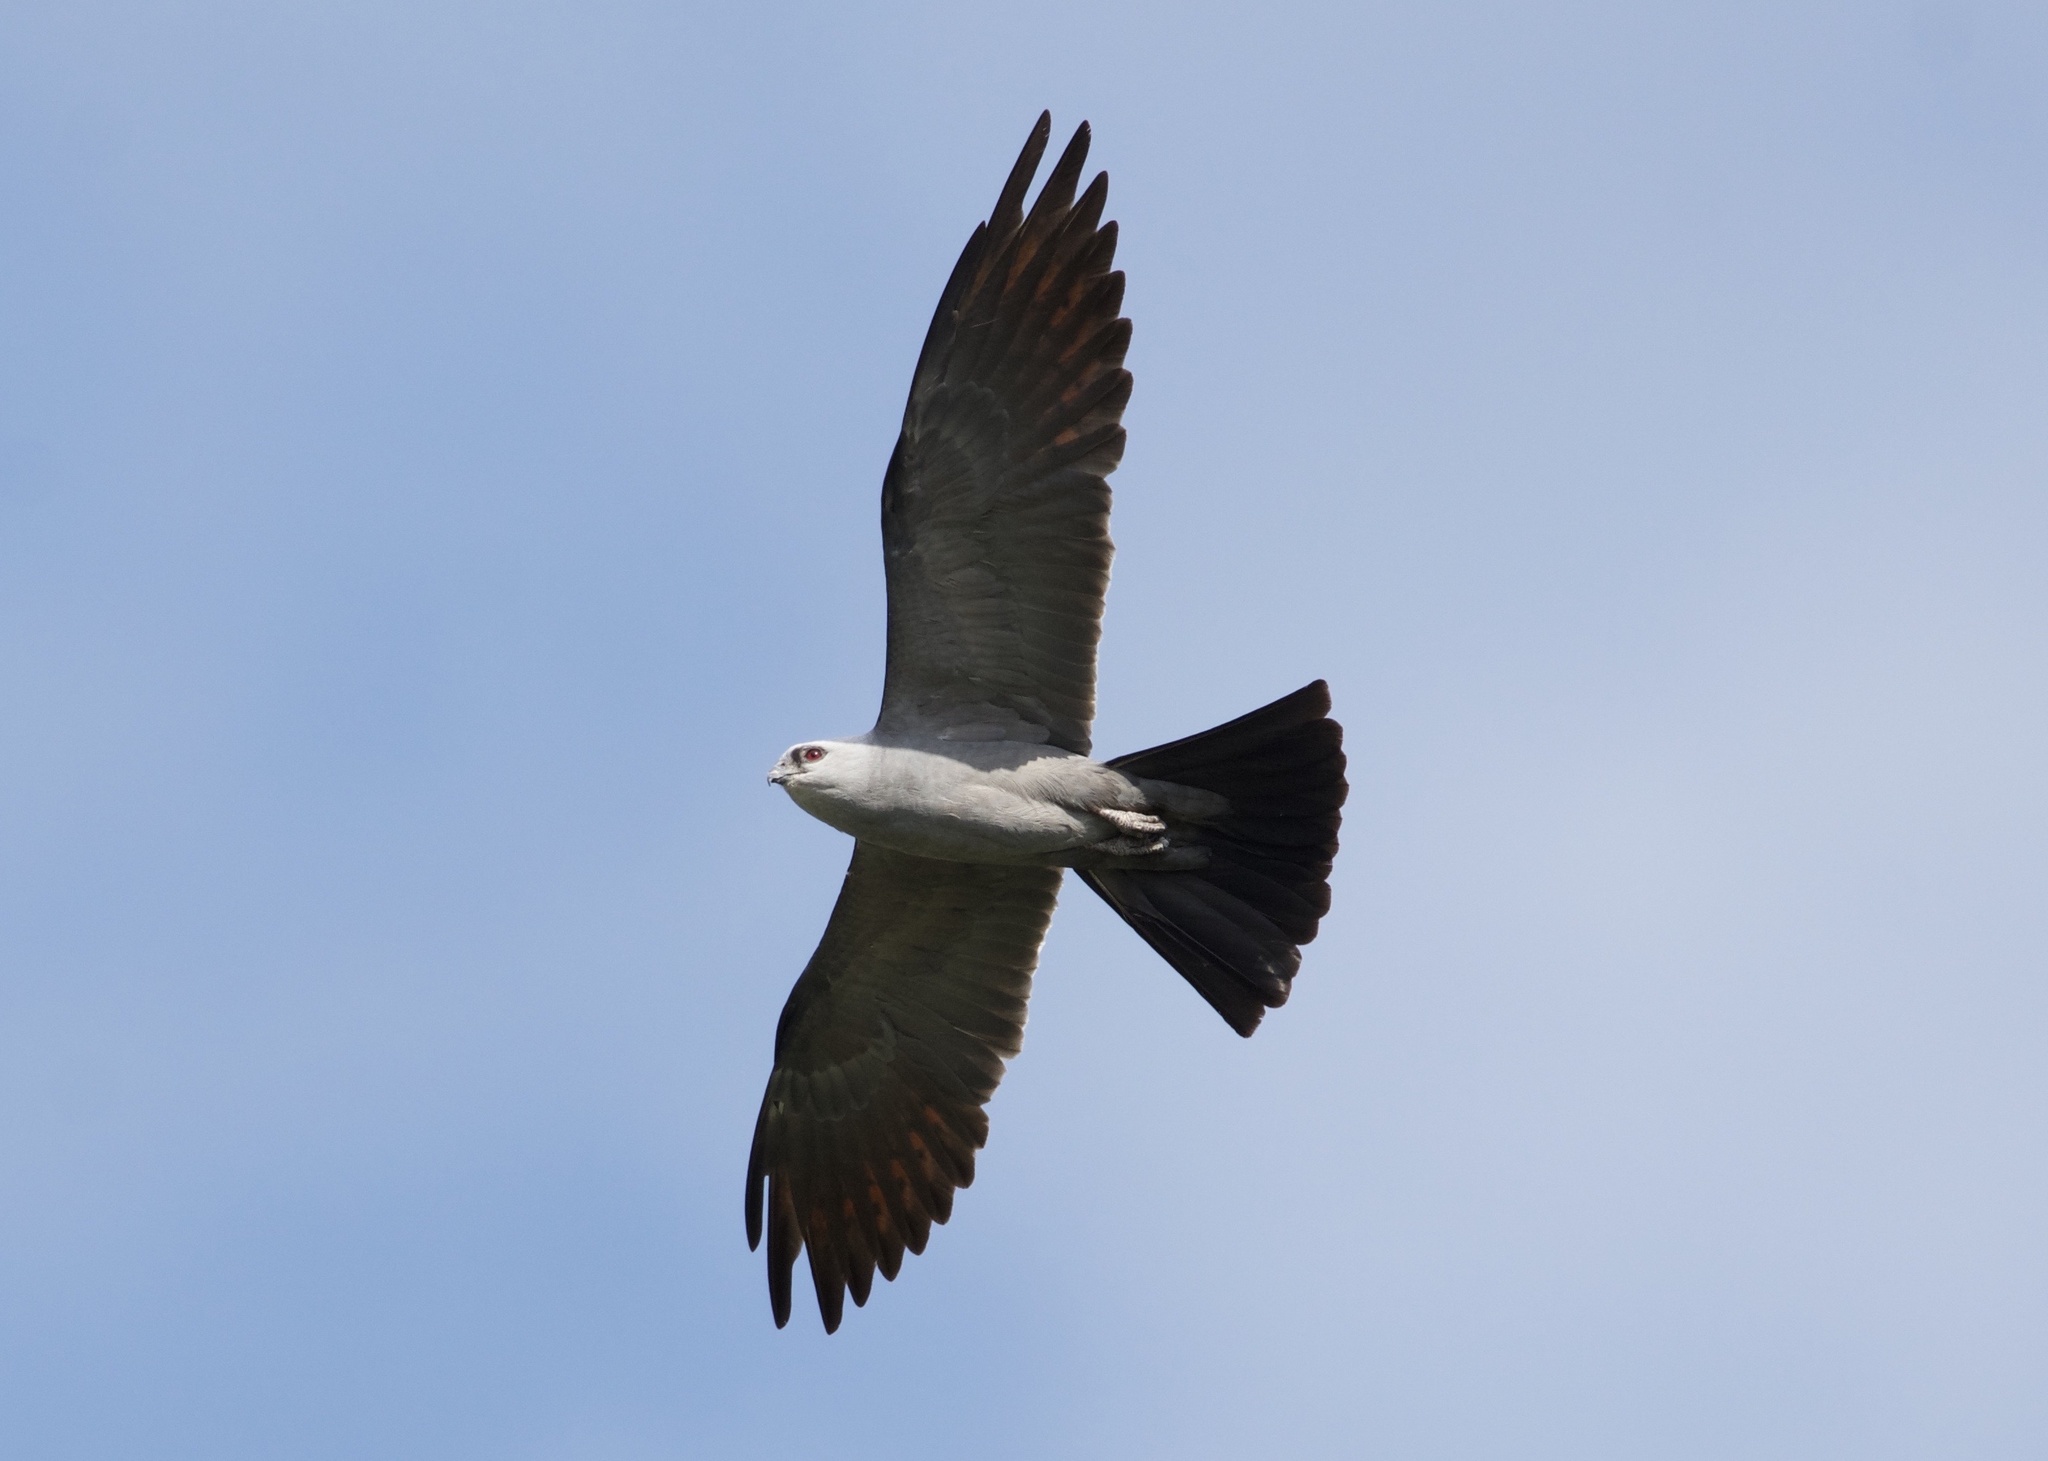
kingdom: Animalia
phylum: Chordata
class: Aves
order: Accipitriformes
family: Accipitridae
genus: Ictinia
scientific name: Ictinia mississippiensis
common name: Mississippi kite
